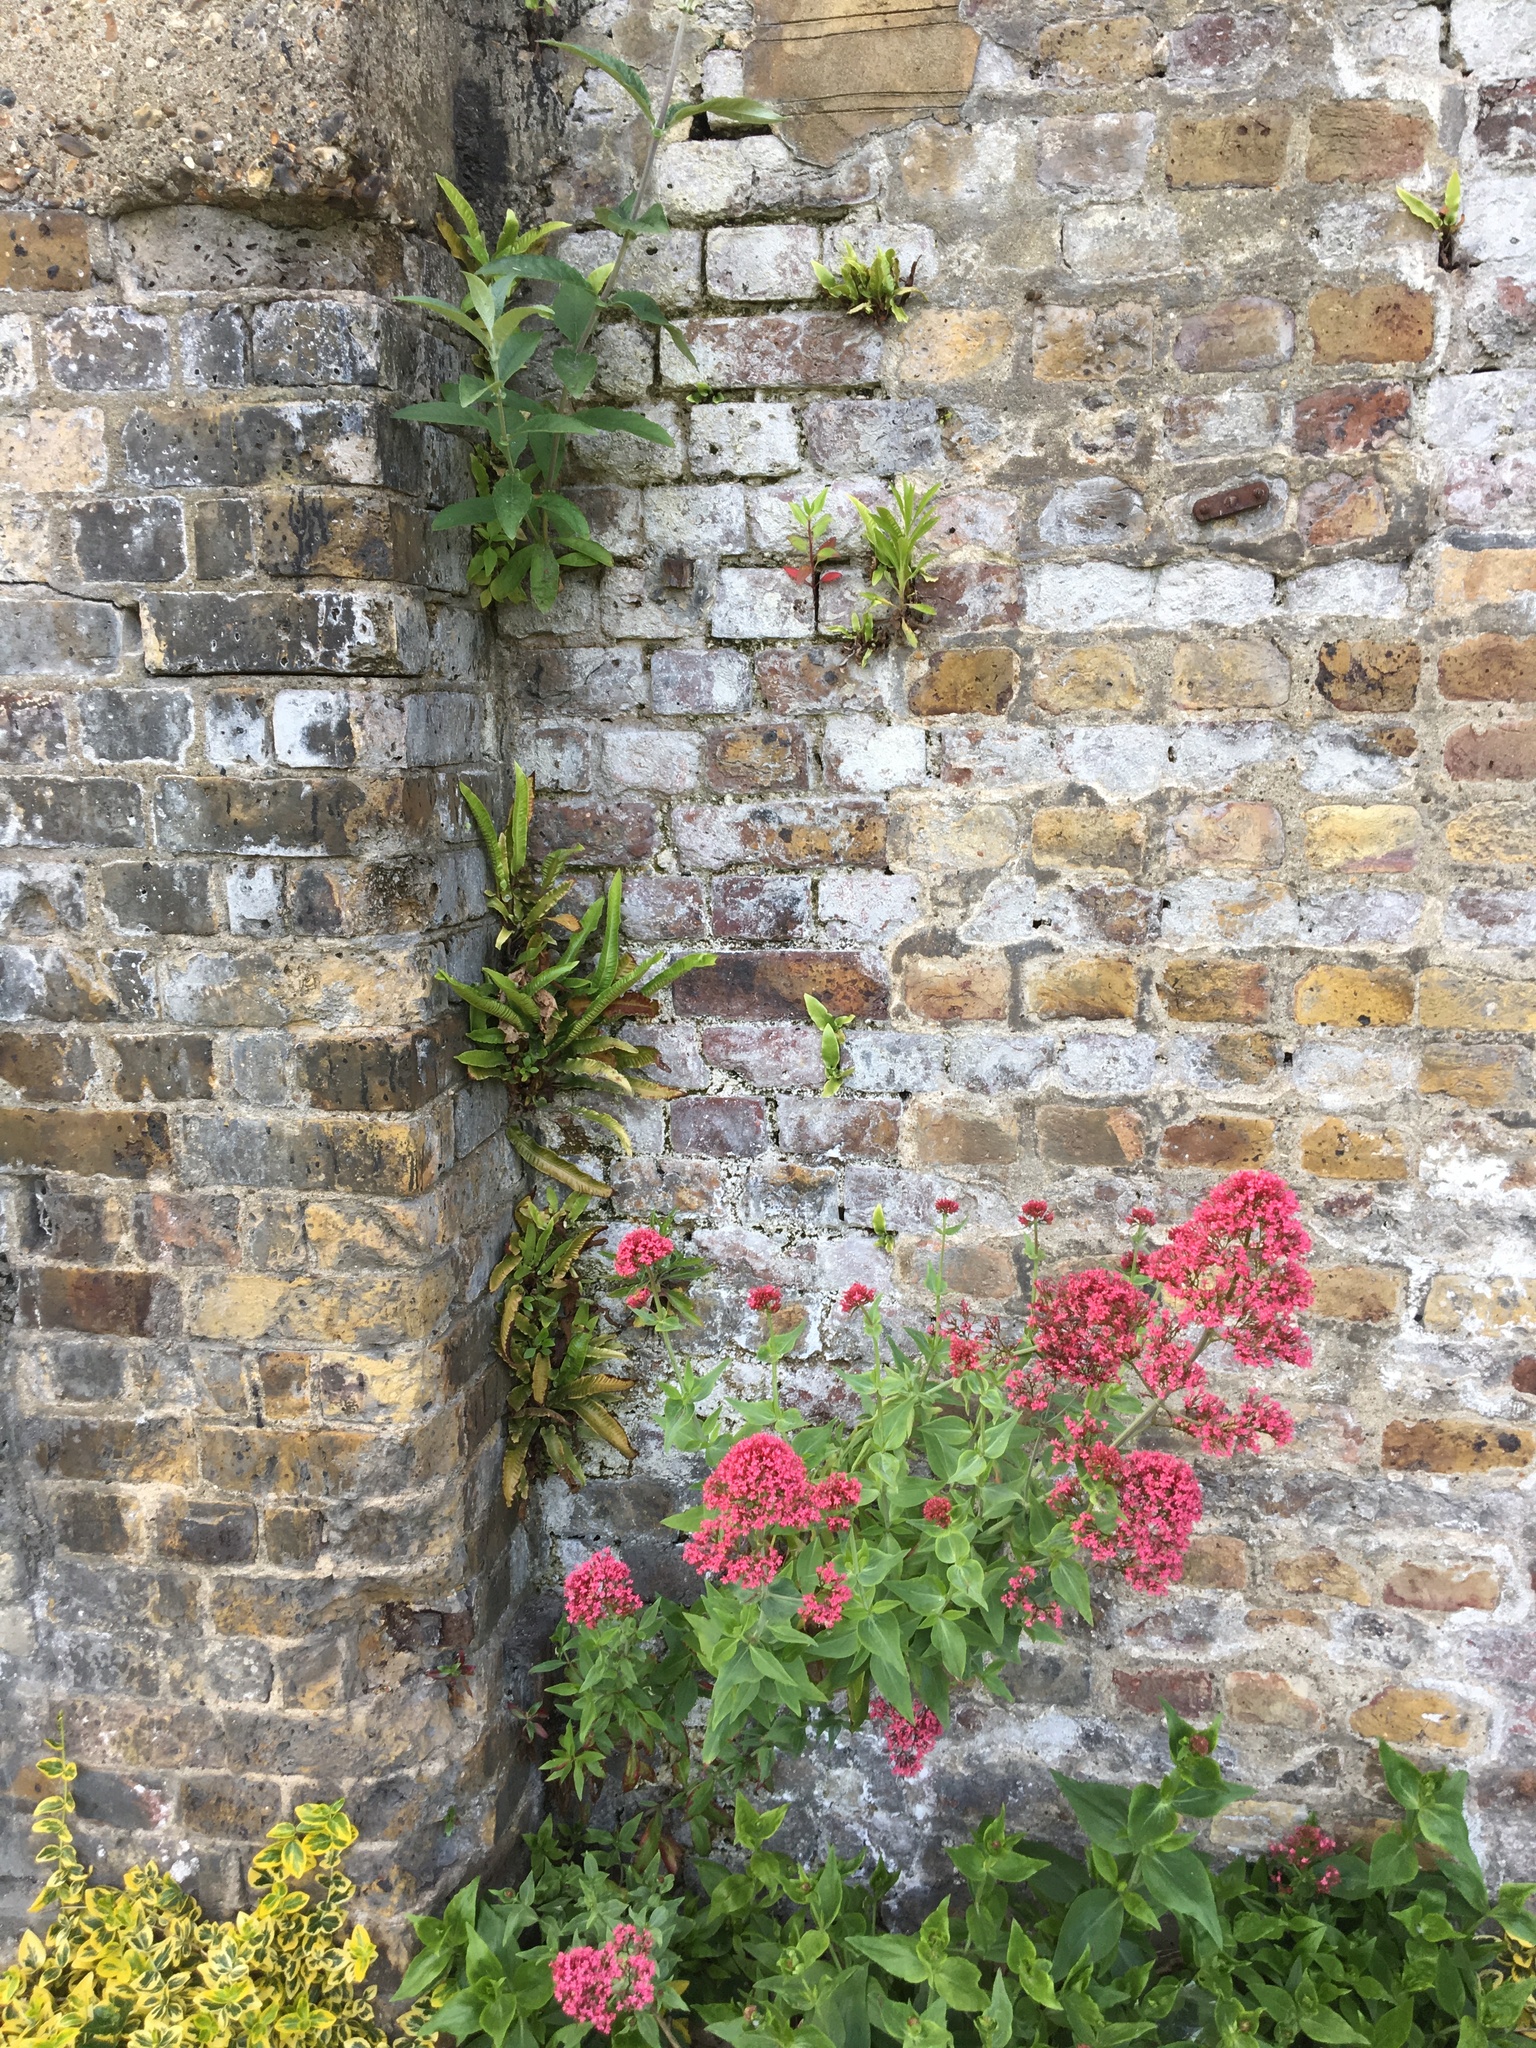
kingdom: Plantae
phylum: Tracheophyta
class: Polypodiopsida
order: Polypodiales
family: Aspleniaceae
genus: Asplenium
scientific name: Asplenium scolopendrium
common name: Hart's-tongue fern
